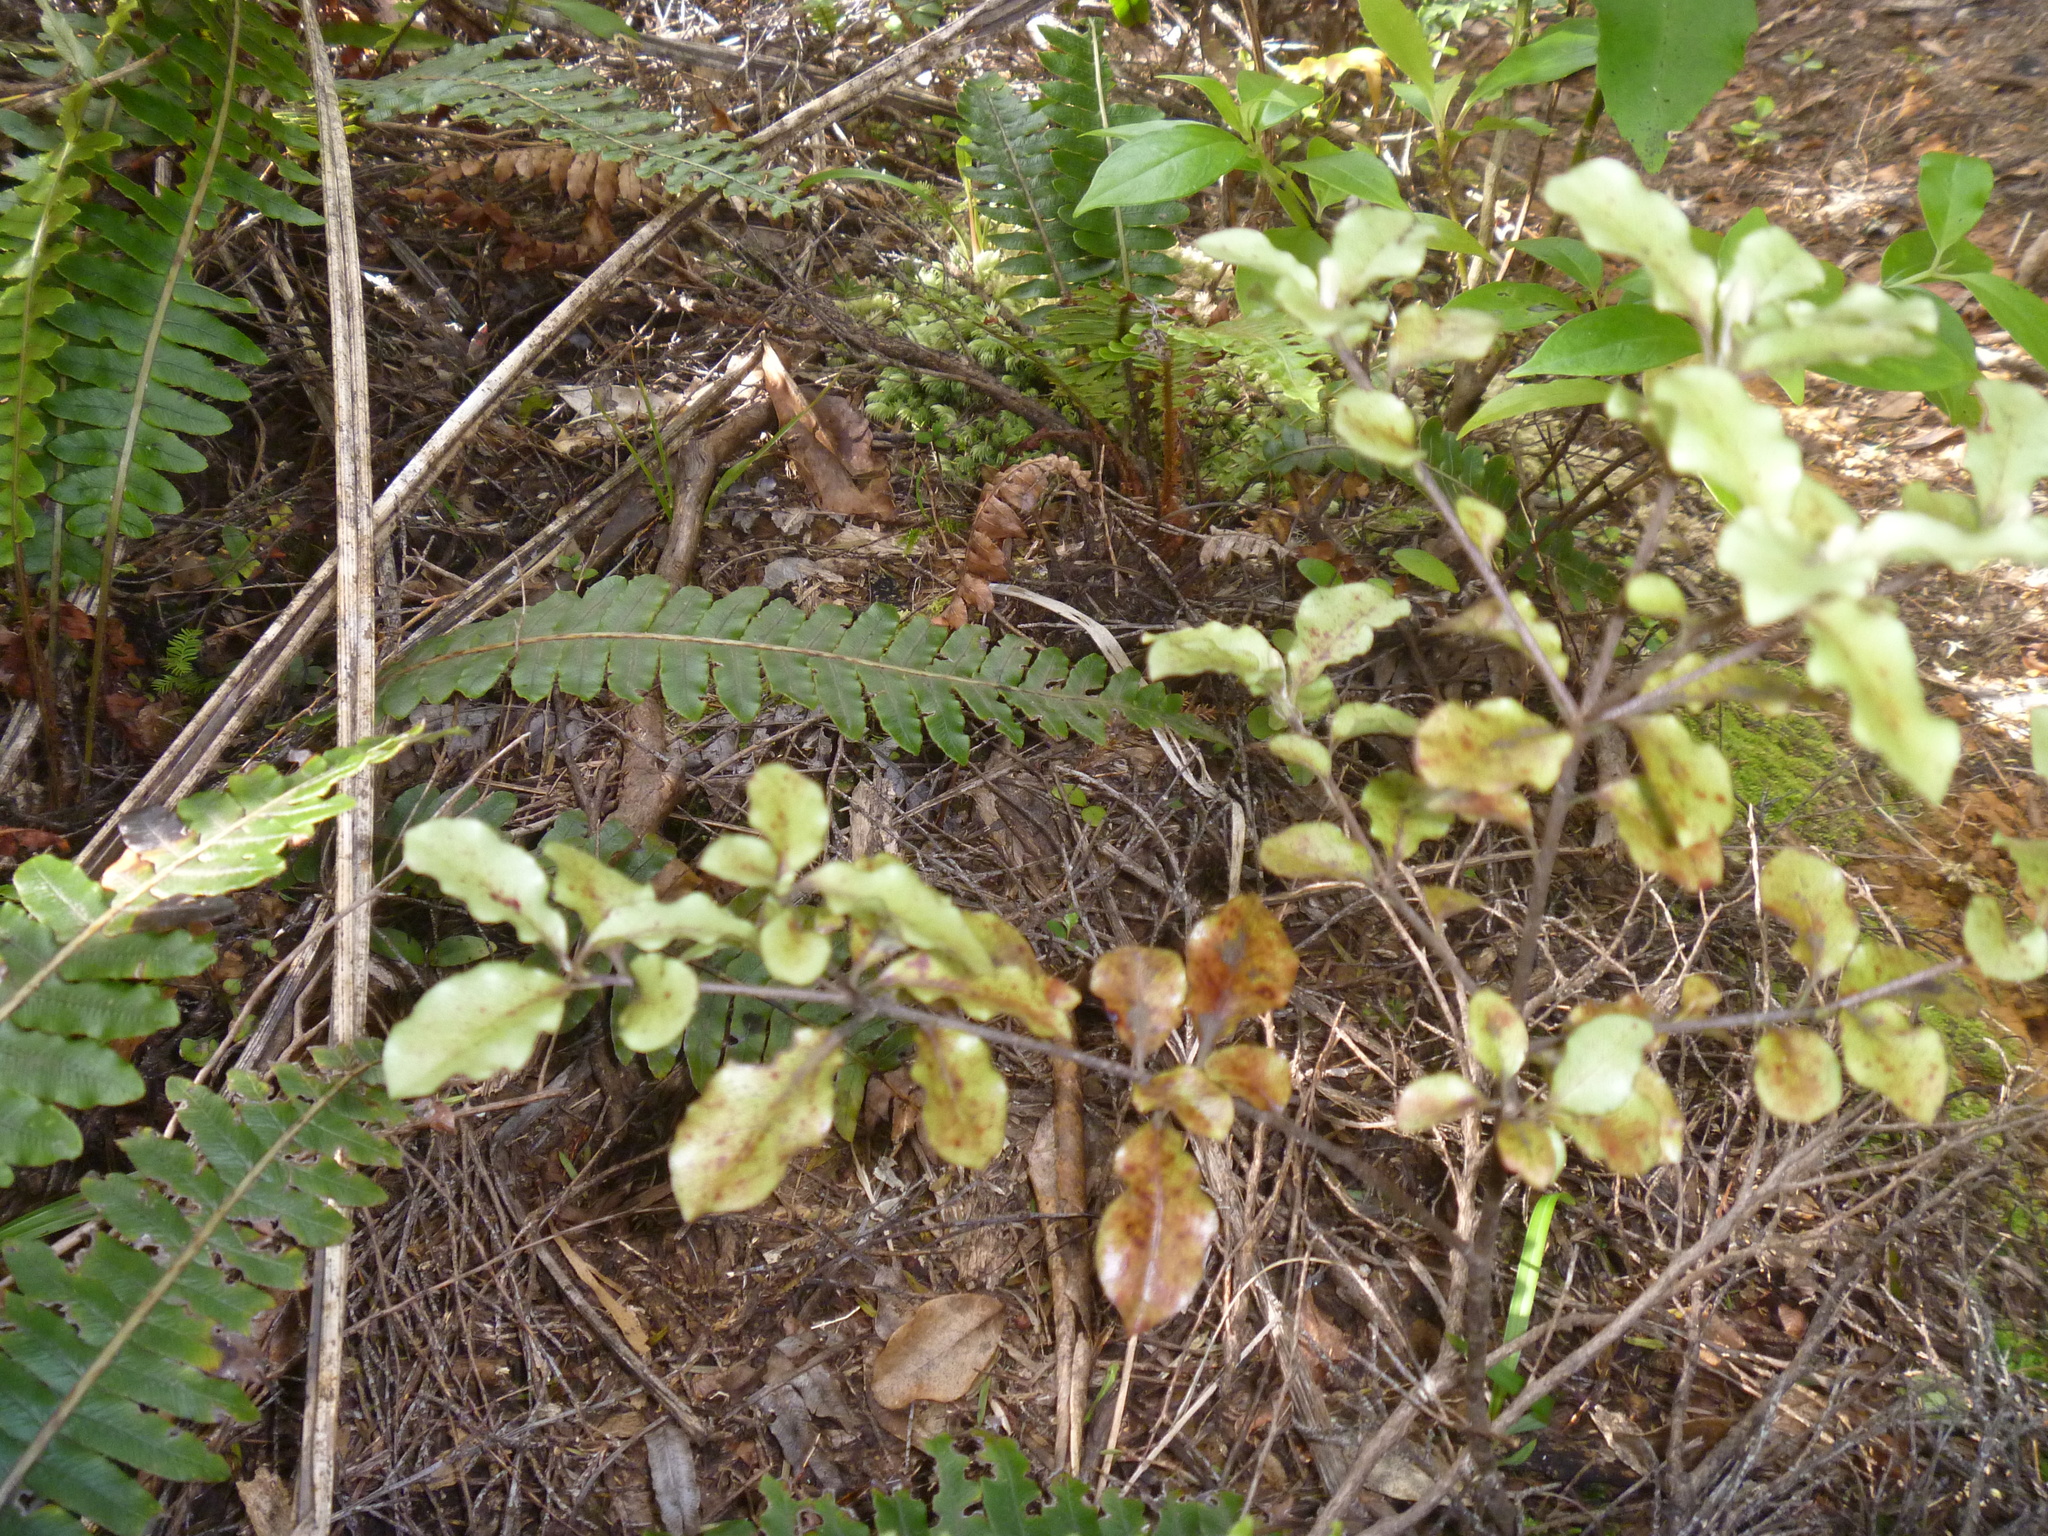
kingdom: Plantae
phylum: Tracheophyta
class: Magnoliopsida
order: Apiales
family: Pittosporaceae
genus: Pittosporum
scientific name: Pittosporum tenuifolium
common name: Kohuhu
